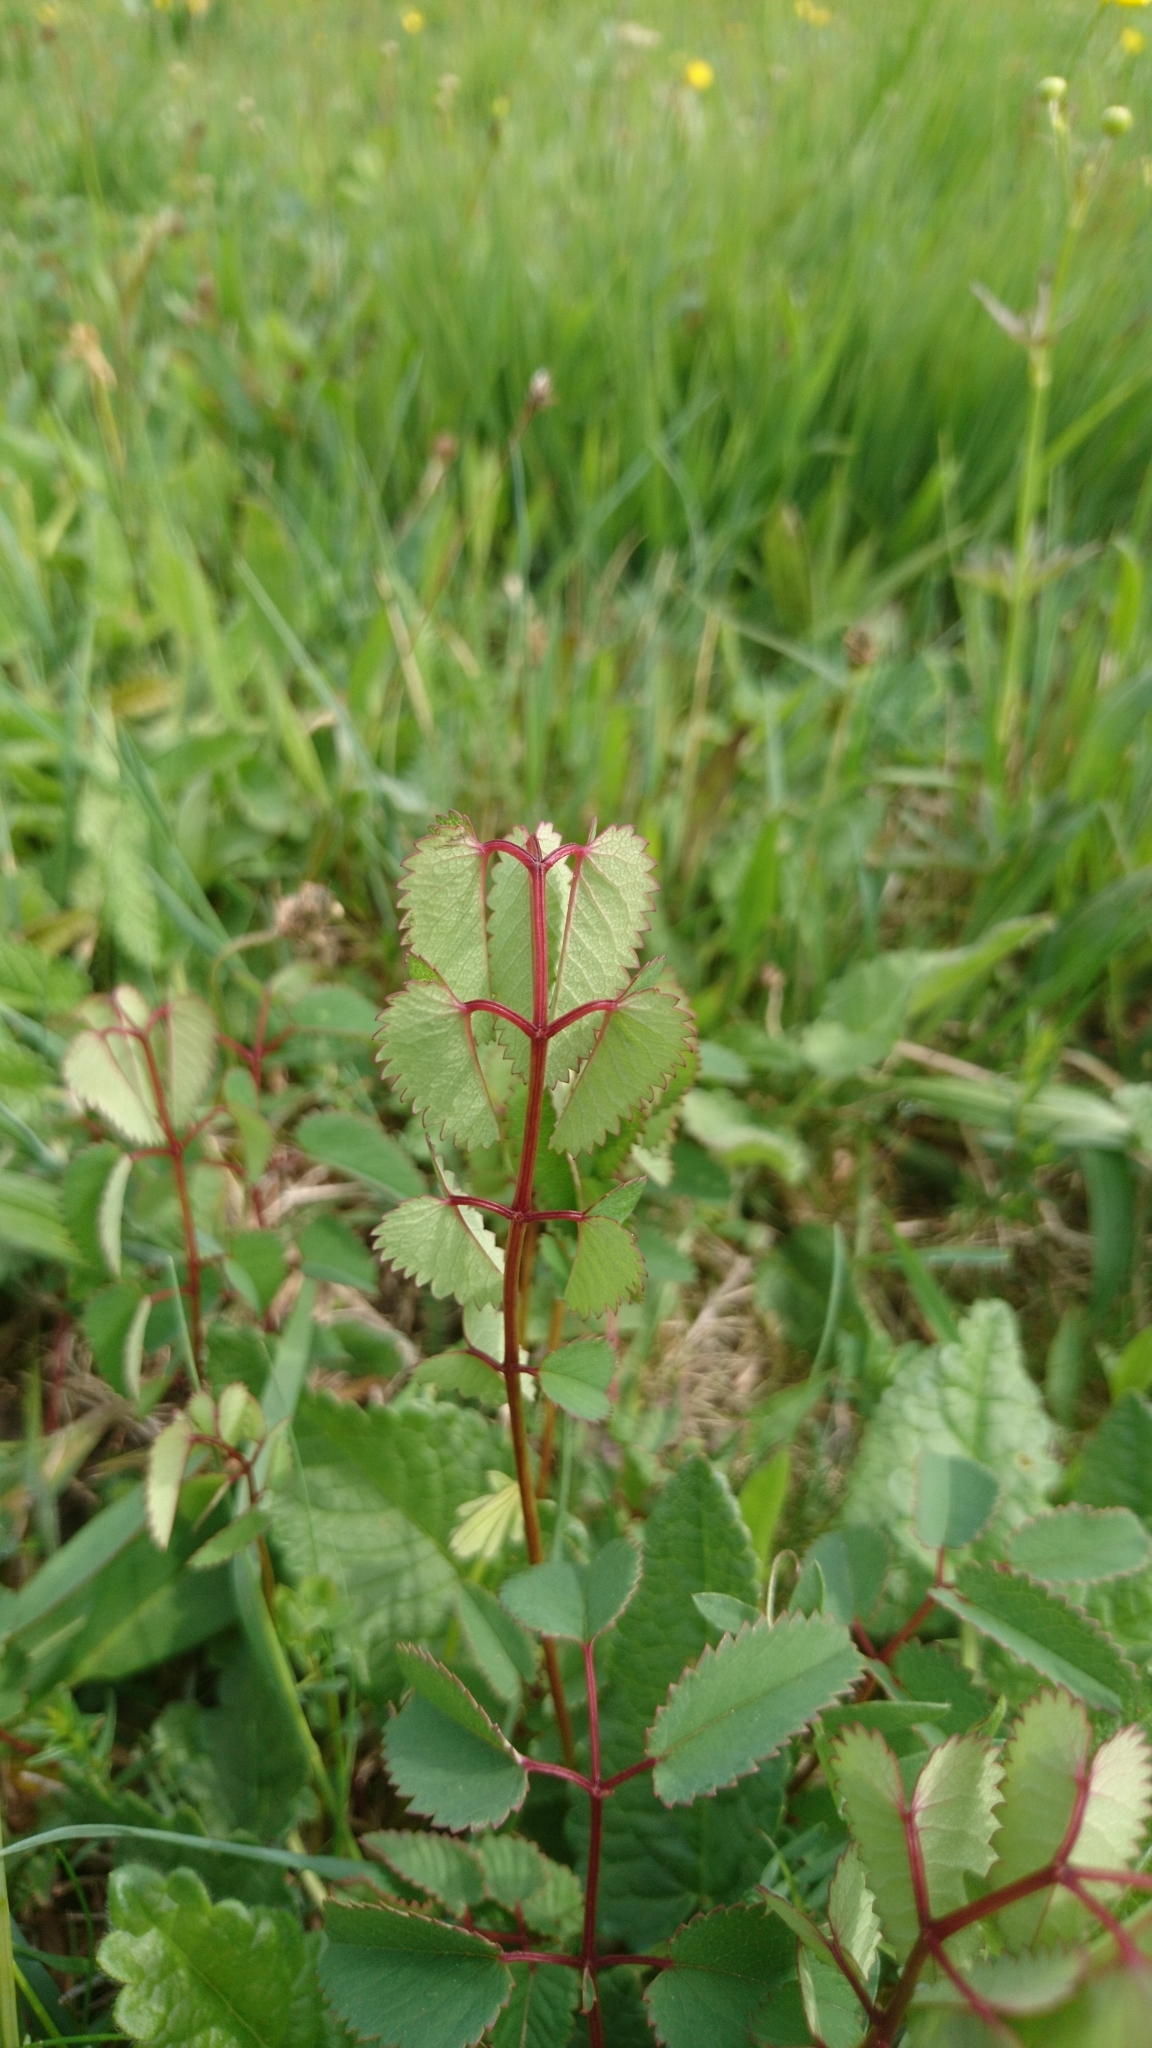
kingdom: Plantae
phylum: Tracheophyta
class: Magnoliopsida
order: Rosales
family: Rosaceae
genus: Sanguisorba
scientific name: Sanguisorba officinalis
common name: Great burnet
